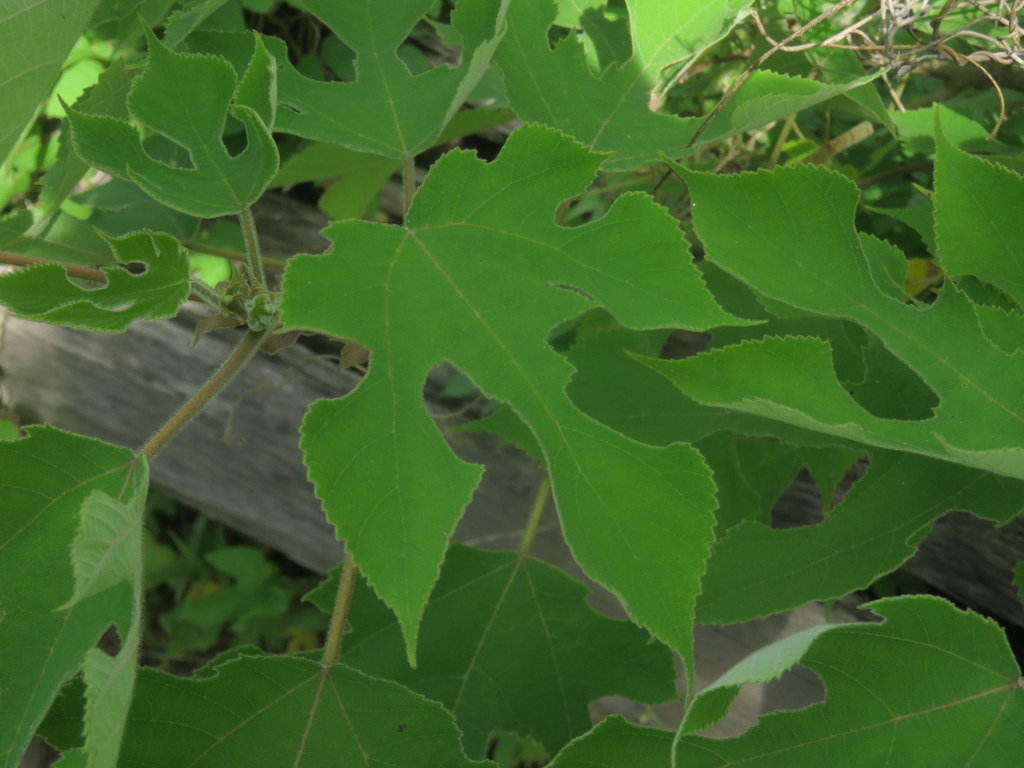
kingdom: Plantae
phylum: Tracheophyta
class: Magnoliopsida
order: Rosales
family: Moraceae
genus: Broussonetia
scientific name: Broussonetia papyrifera
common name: Paper mulberry
